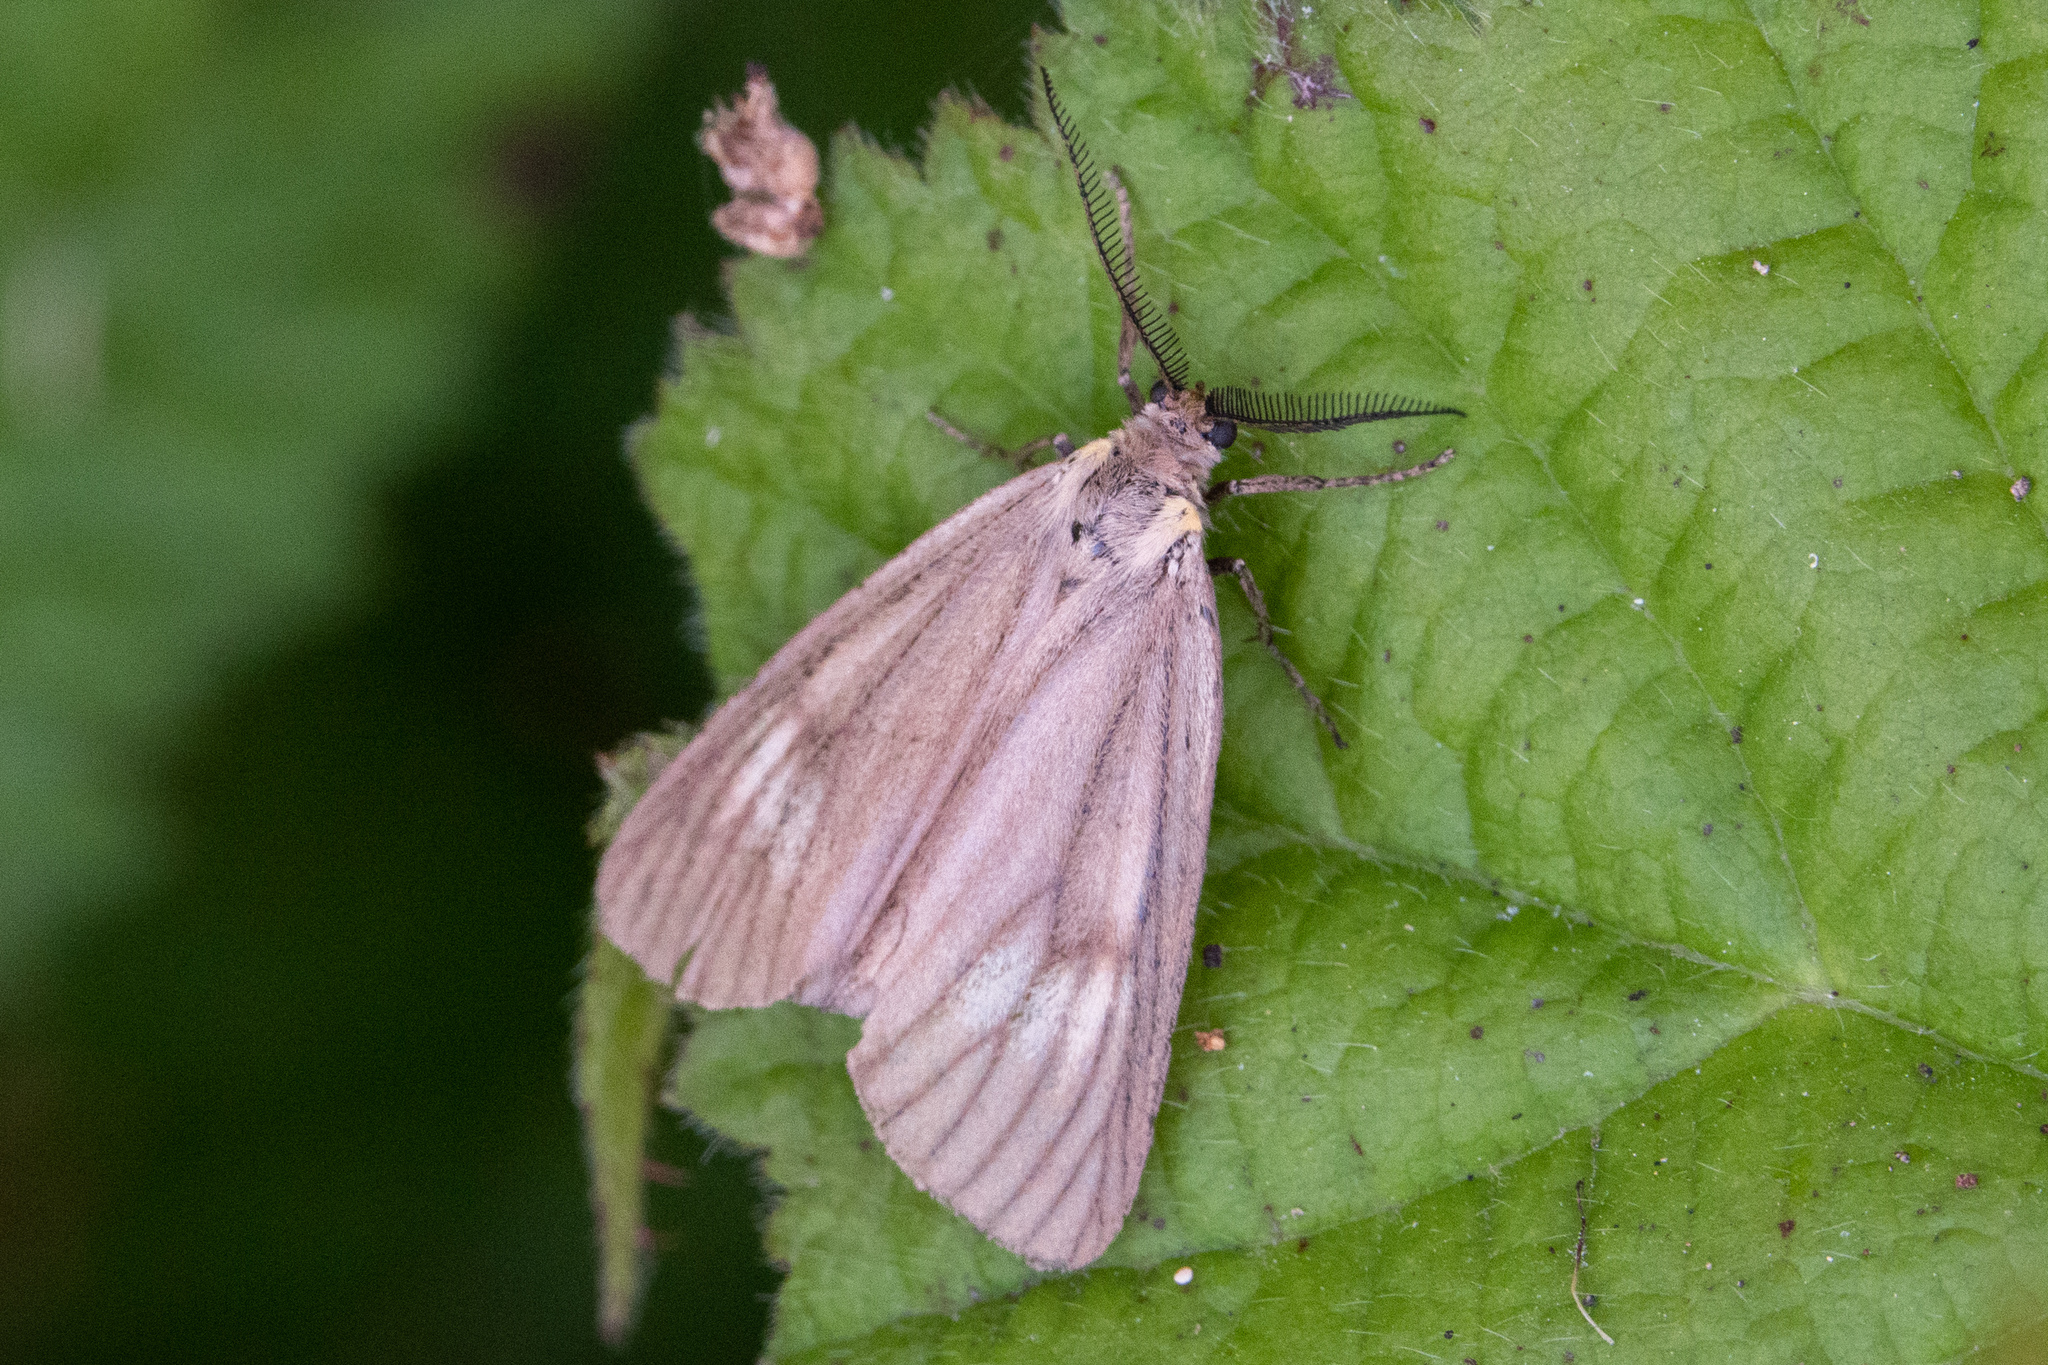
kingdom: Animalia
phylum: Arthropoda
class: Insecta
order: Lepidoptera
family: Notodontidae
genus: Phryganidia
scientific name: Phryganidia californica
